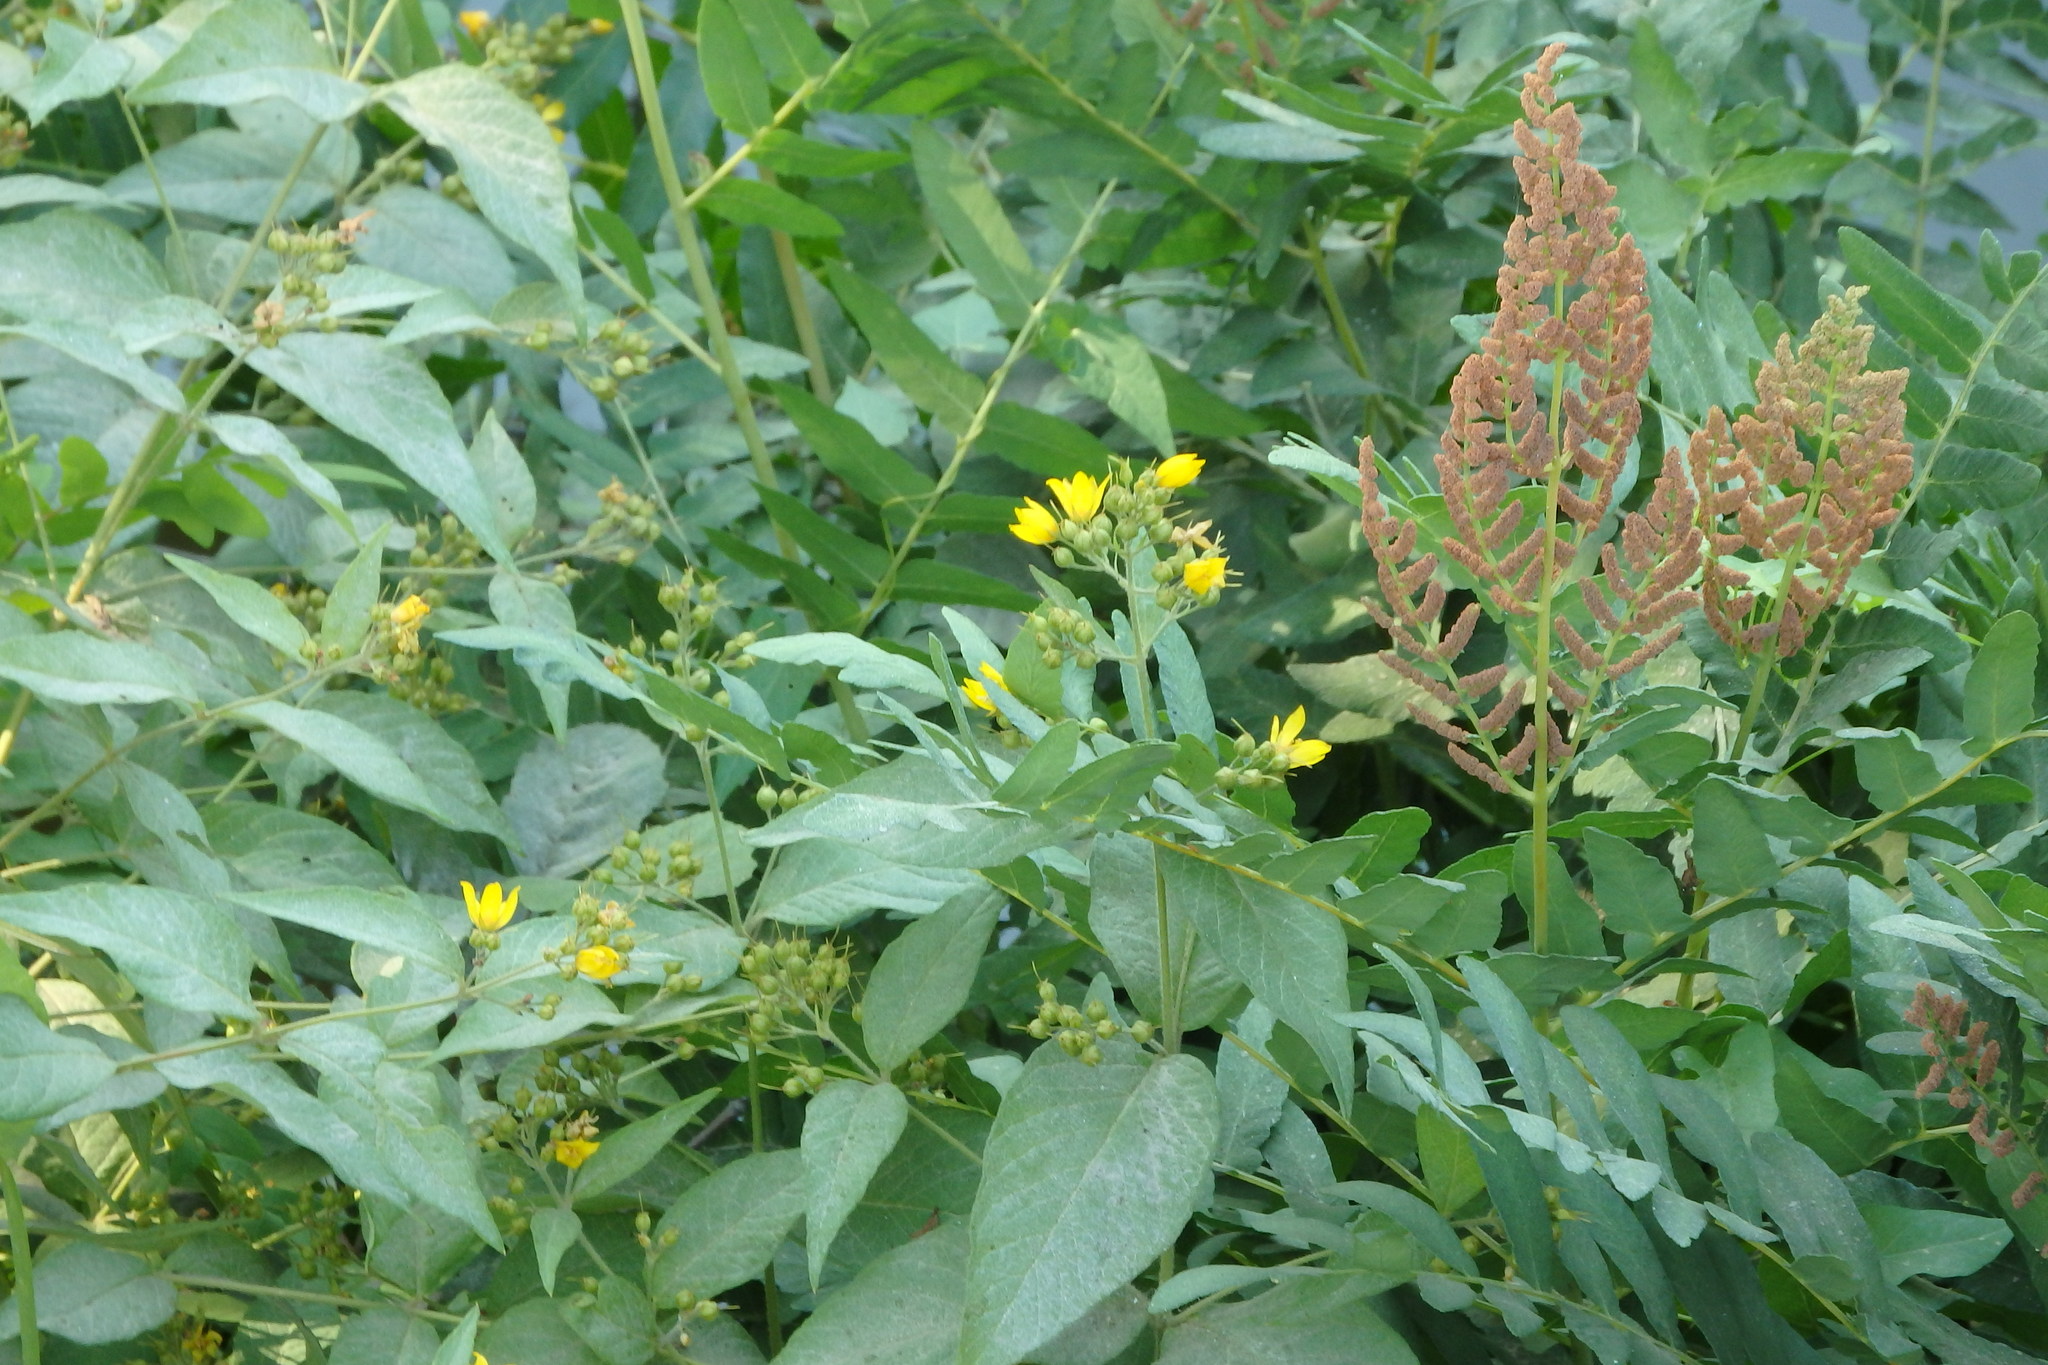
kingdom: Plantae
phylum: Tracheophyta
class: Magnoliopsida
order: Ericales
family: Primulaceae
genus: Lysimachia
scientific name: Lysimachia vulgaris
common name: Yellow loosestrife
